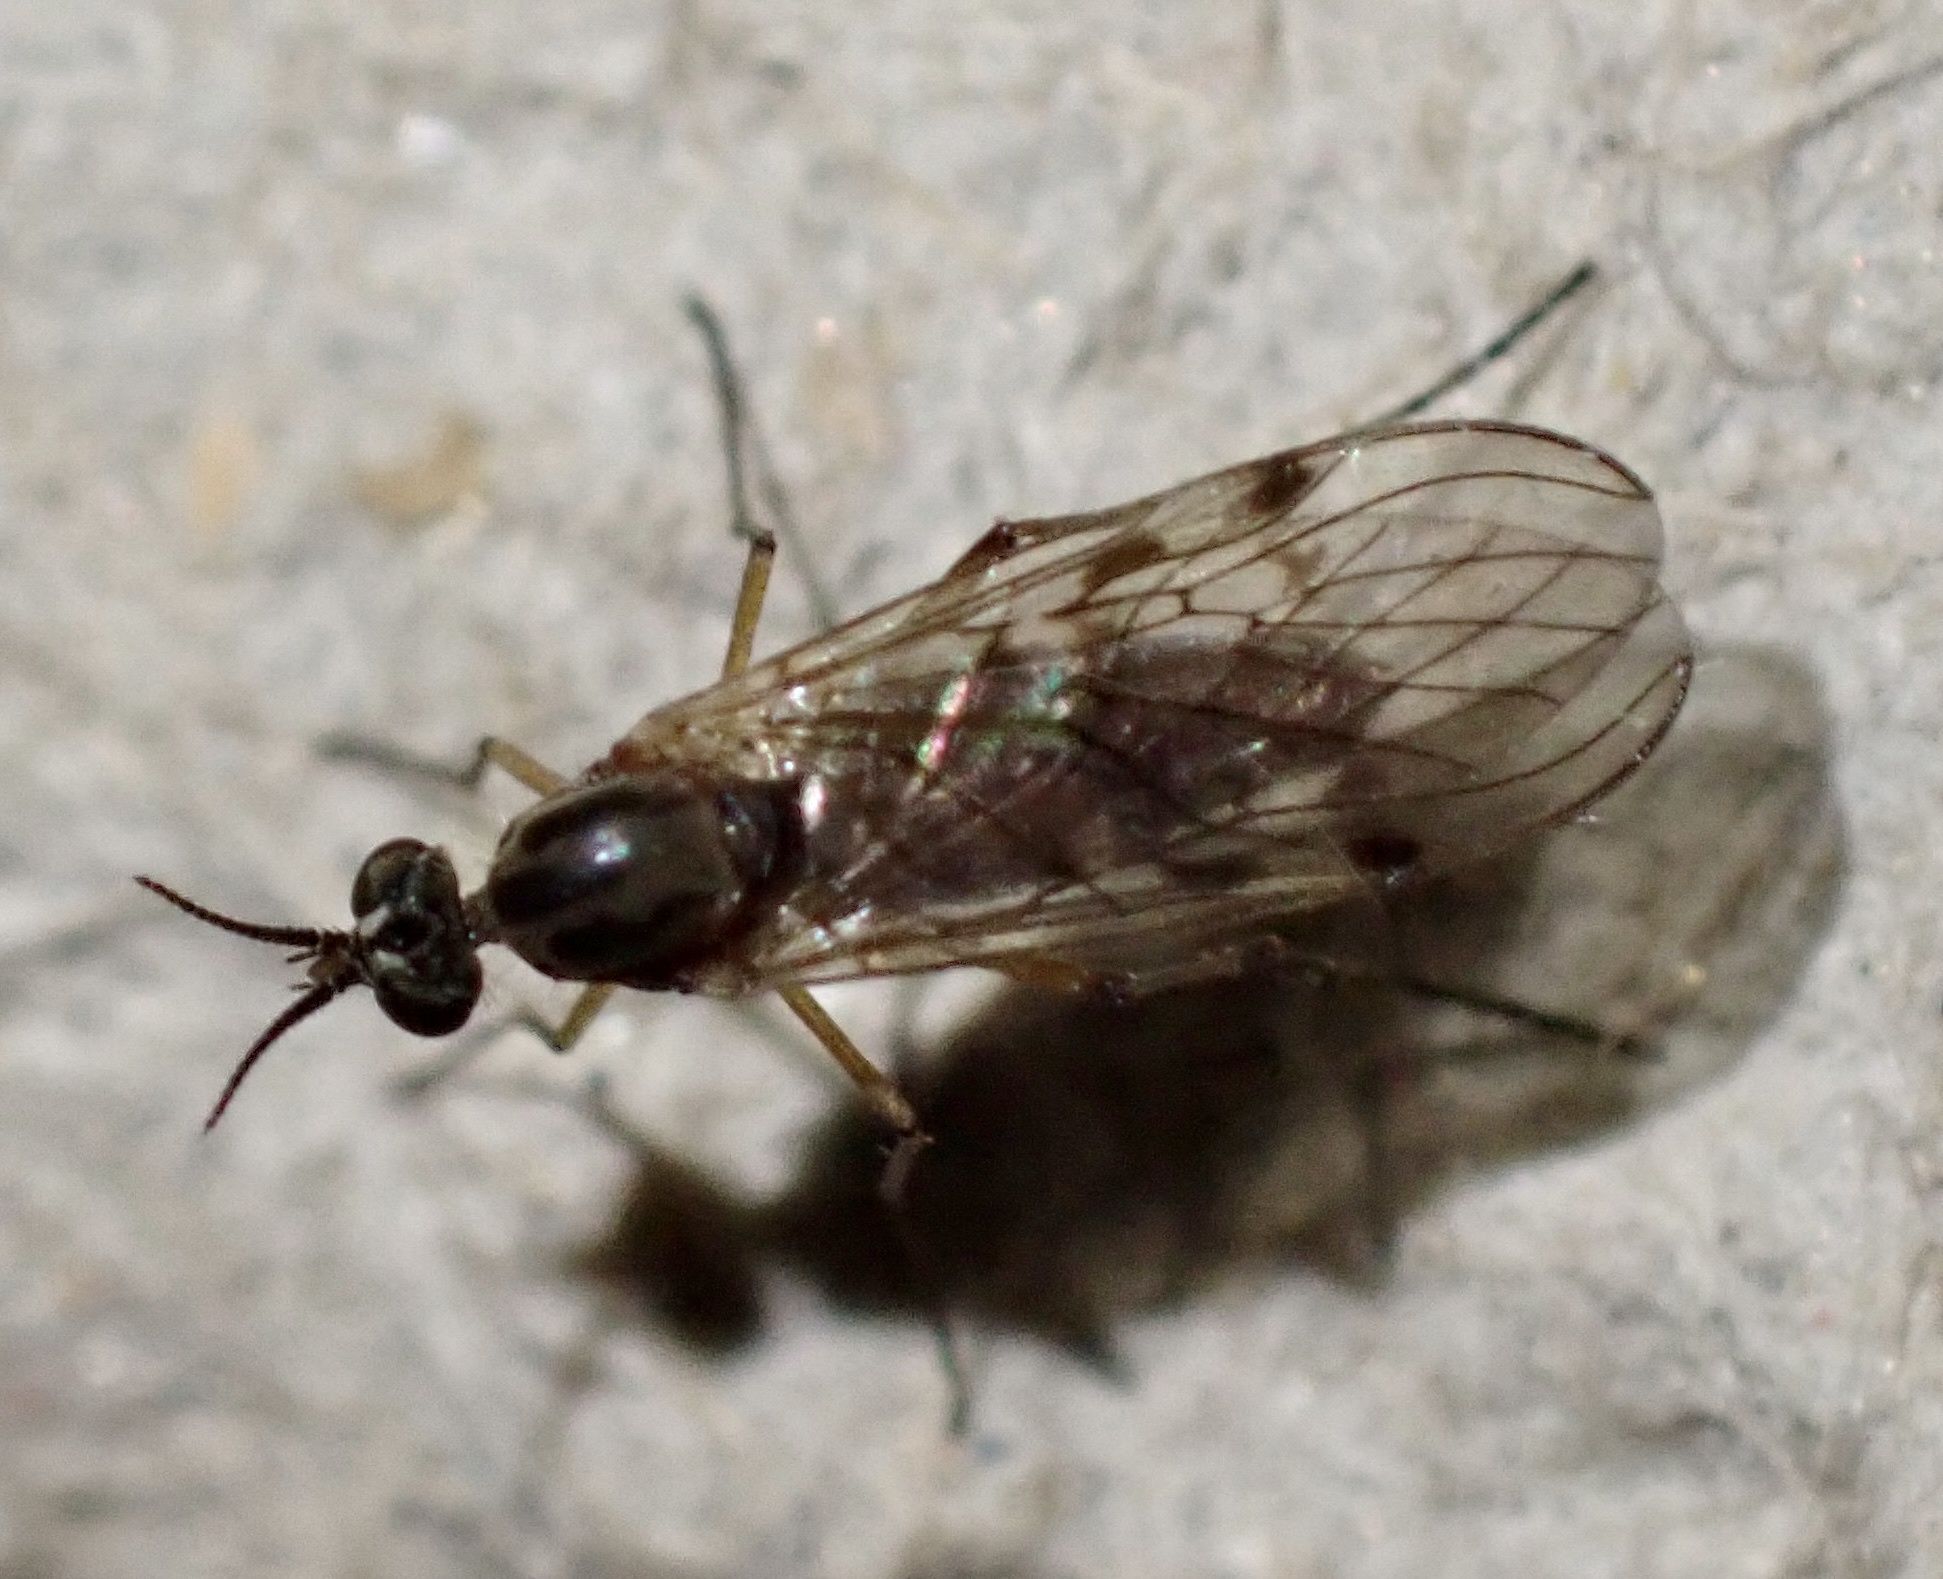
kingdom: Animalia
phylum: Arthropoda
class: Insecta
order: Diptera
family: Anisopodidae
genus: Sylvicola
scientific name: Sylvicola punctatus
